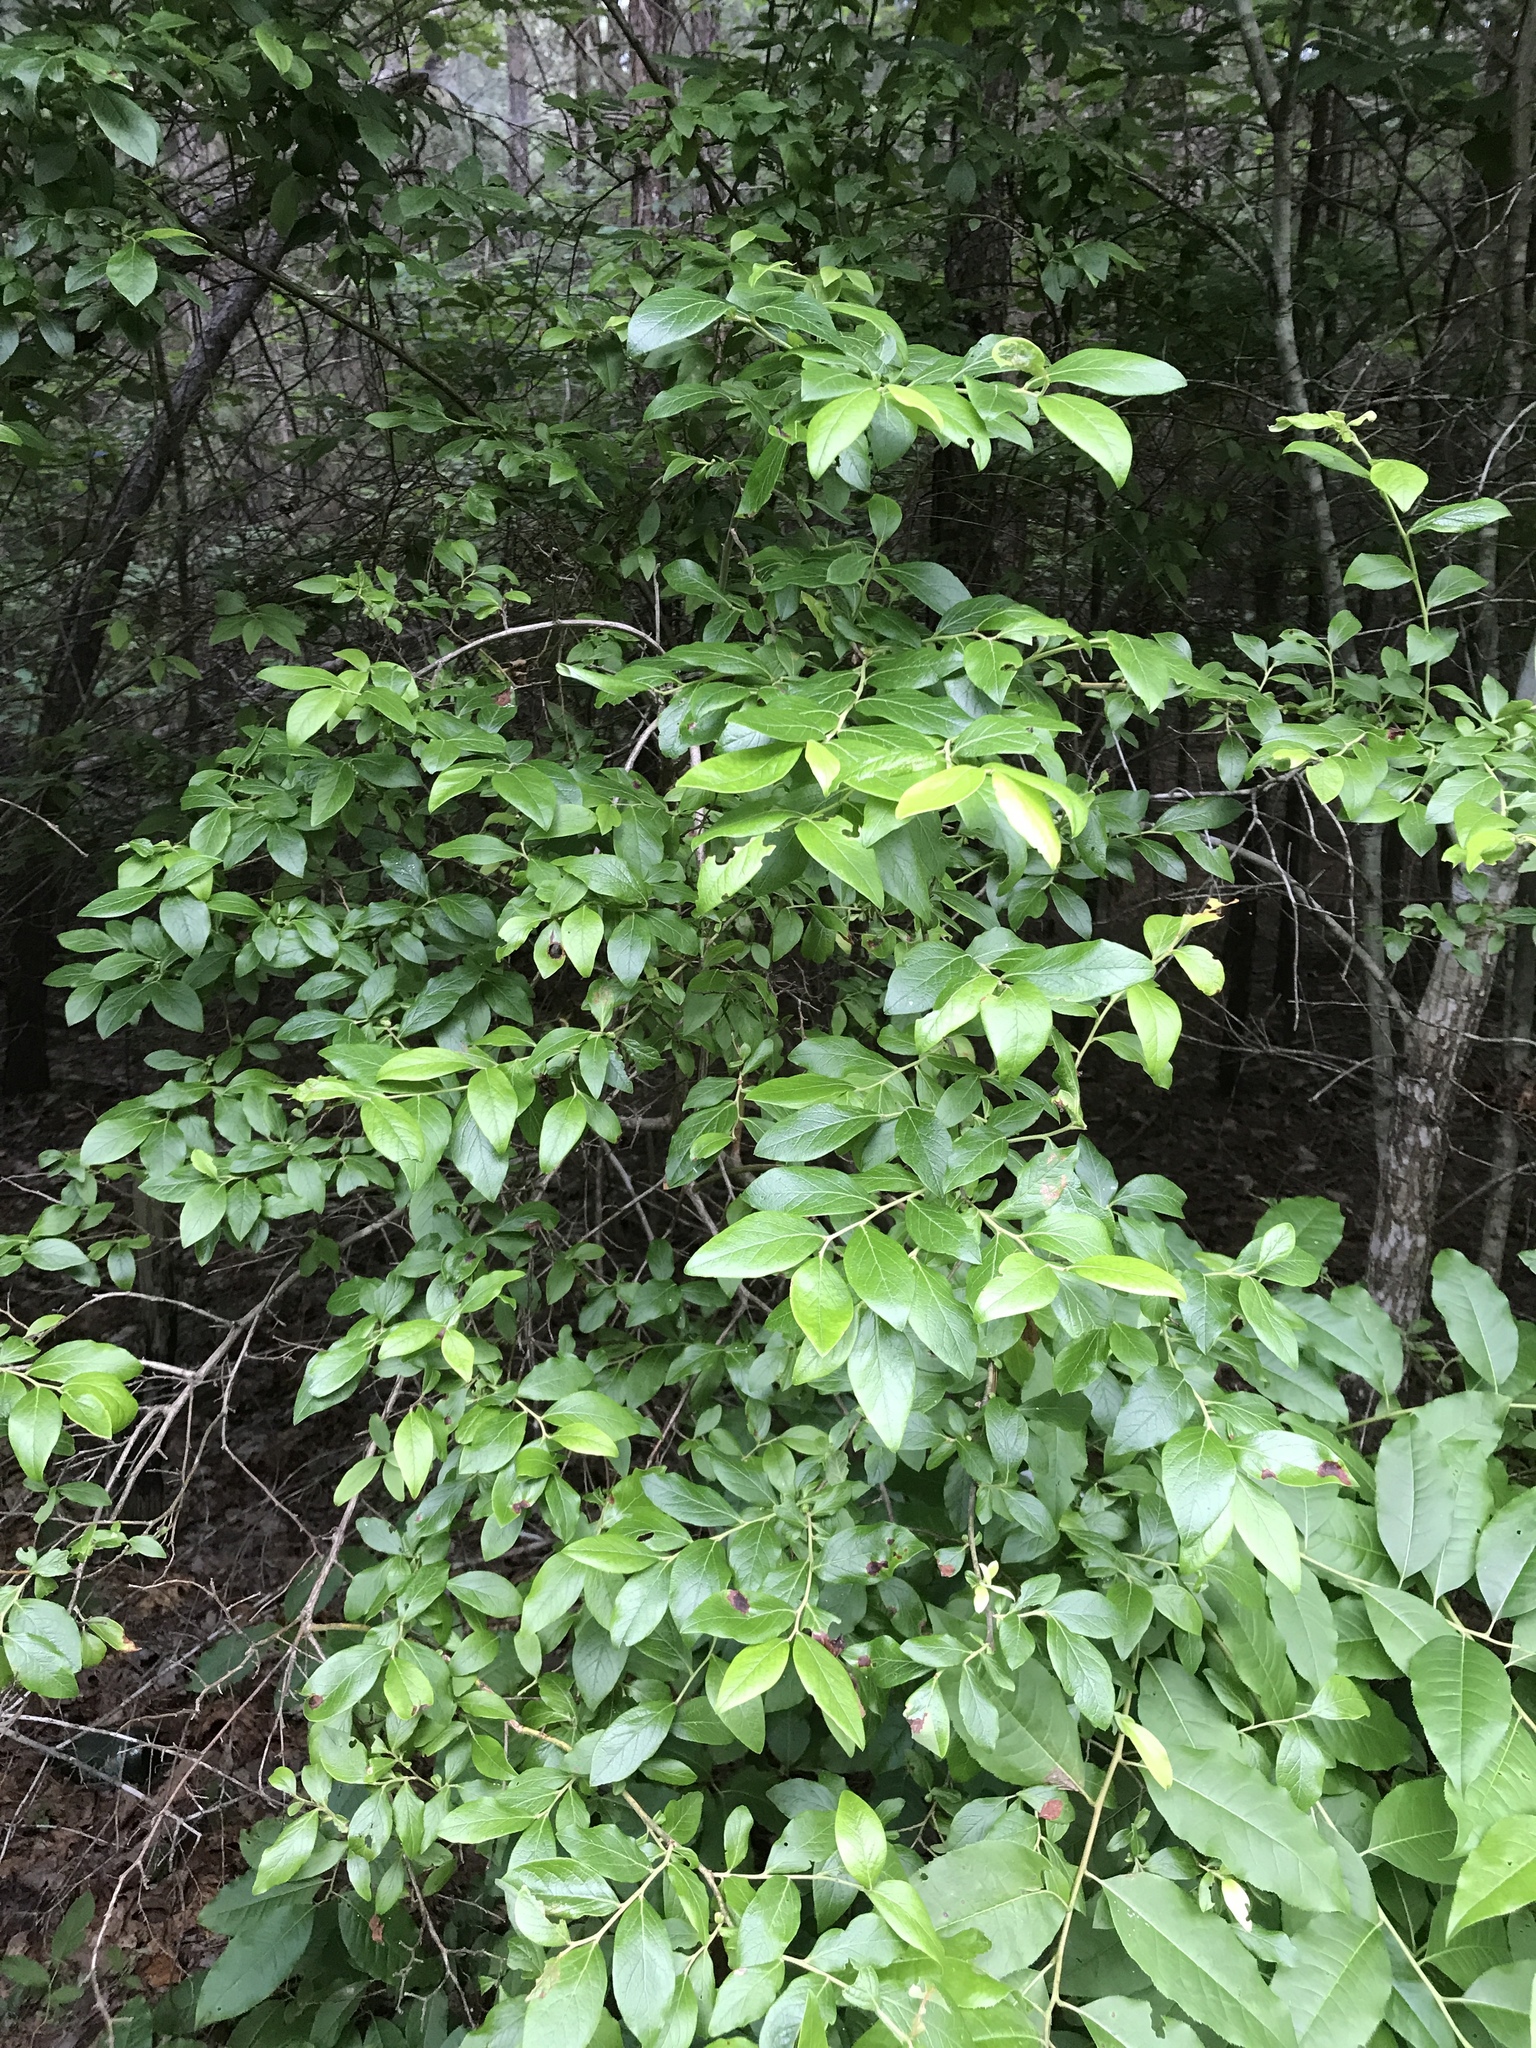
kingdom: Plantae
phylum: Tracheophyta
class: Magnoliopsida
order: Ericales
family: Ericaceae
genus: Vaccinium
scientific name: Vaccinium corymbosum
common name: Blueberry
